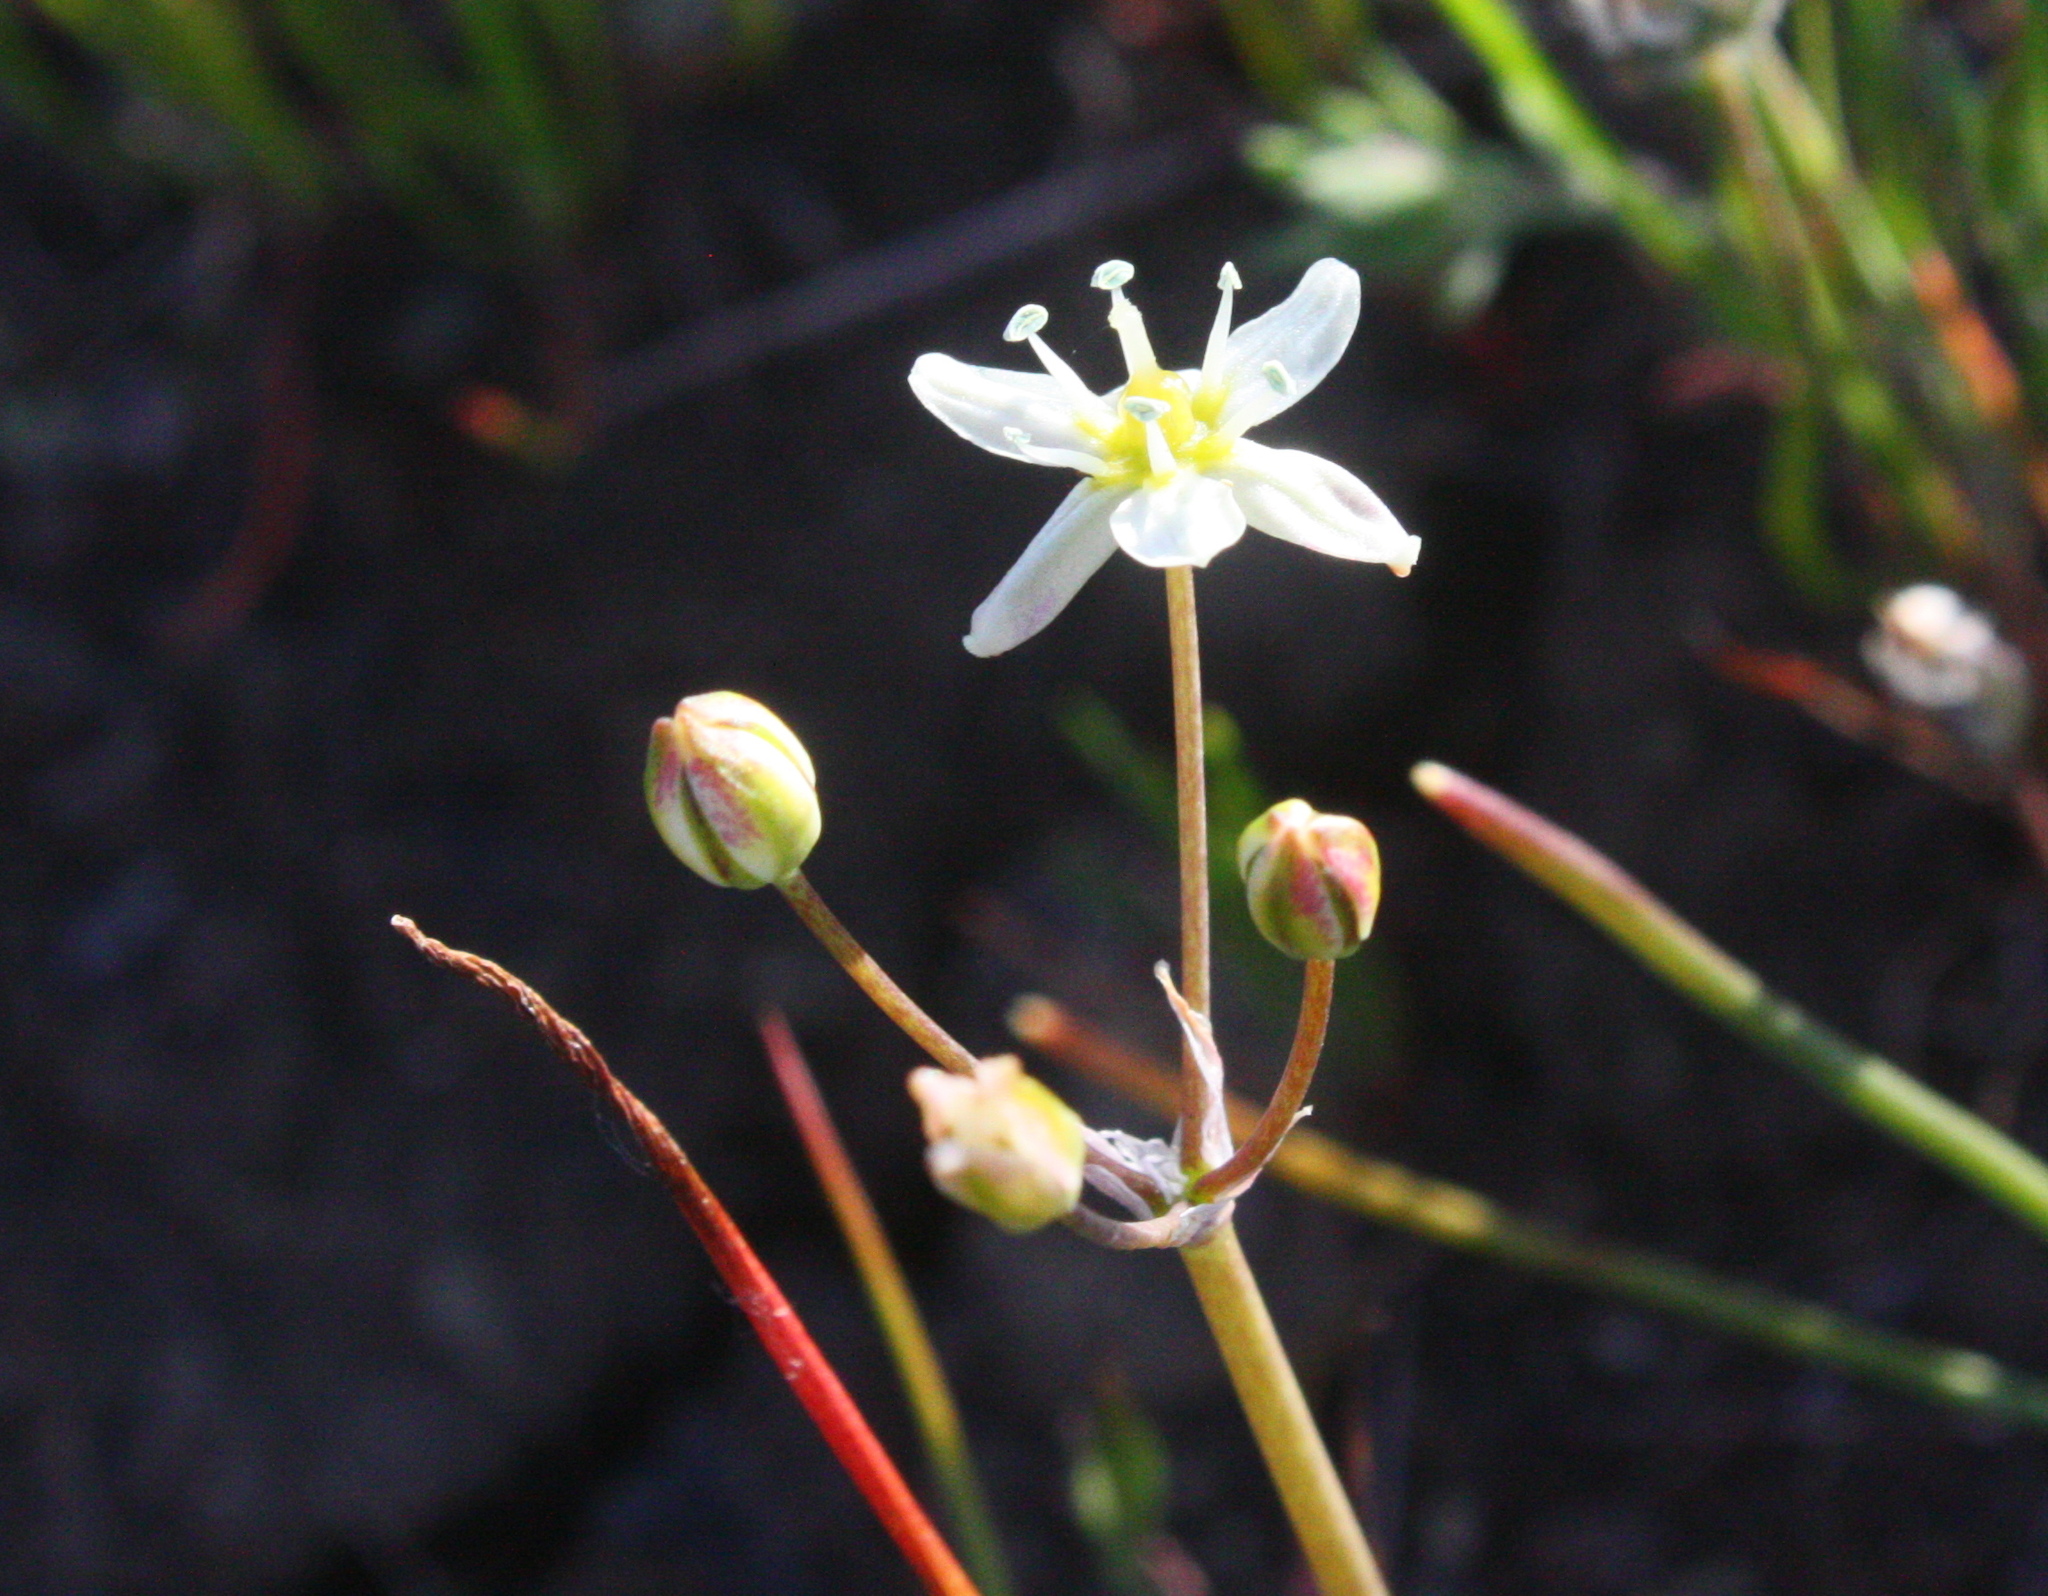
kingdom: Plantae
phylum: Tracheophyta
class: Liliopsida
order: Asparagales
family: Asparagaceae
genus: Muilla
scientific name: Muilla maritima
